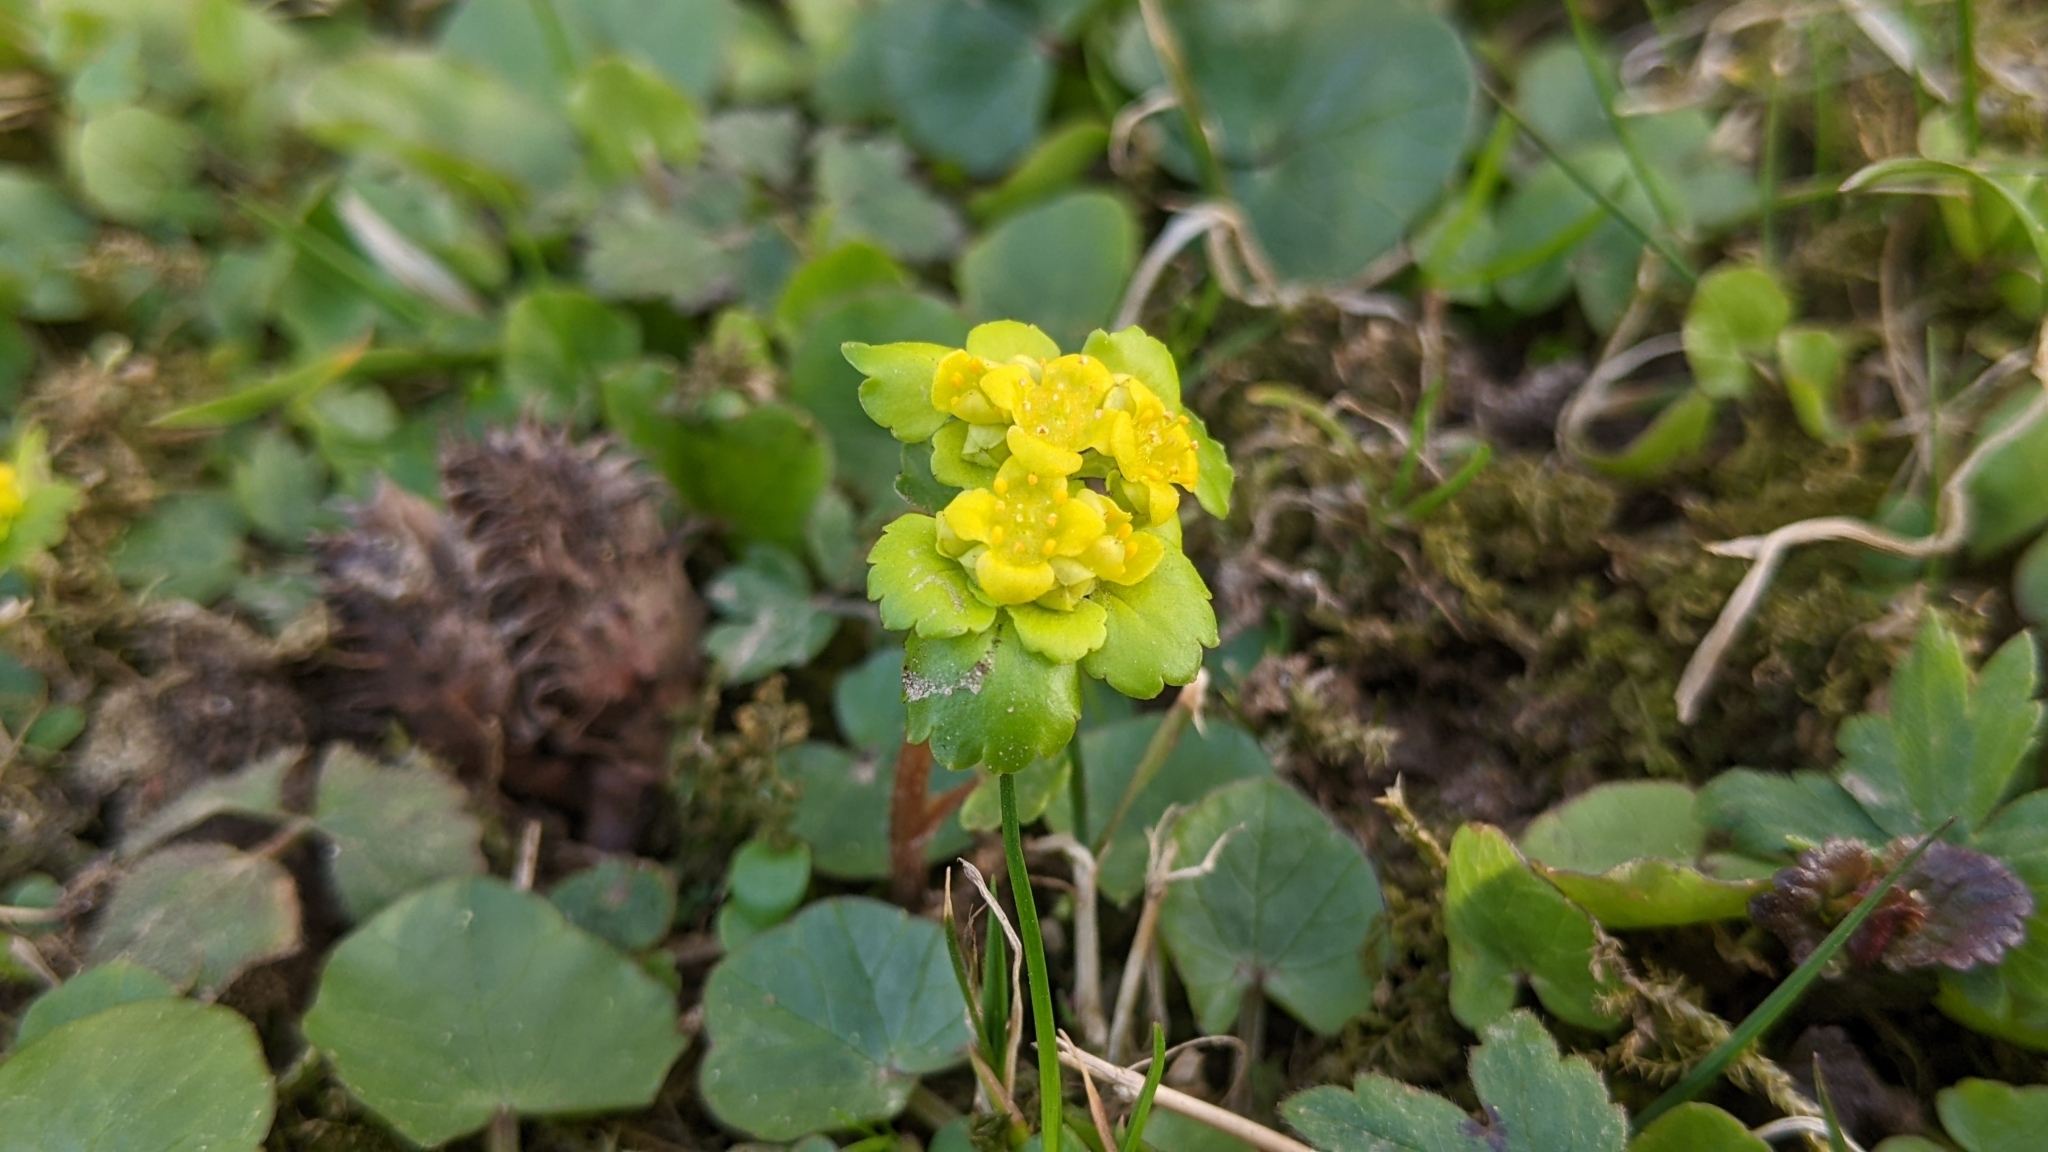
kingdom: Plantae
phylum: Tracheophyta
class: Magnoliopsida
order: Saxifragales
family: Saxifragaceae
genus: Chrysosplenium
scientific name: Chrysosplenium alternifolium
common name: Alternate-leaved golden-saxifrage
